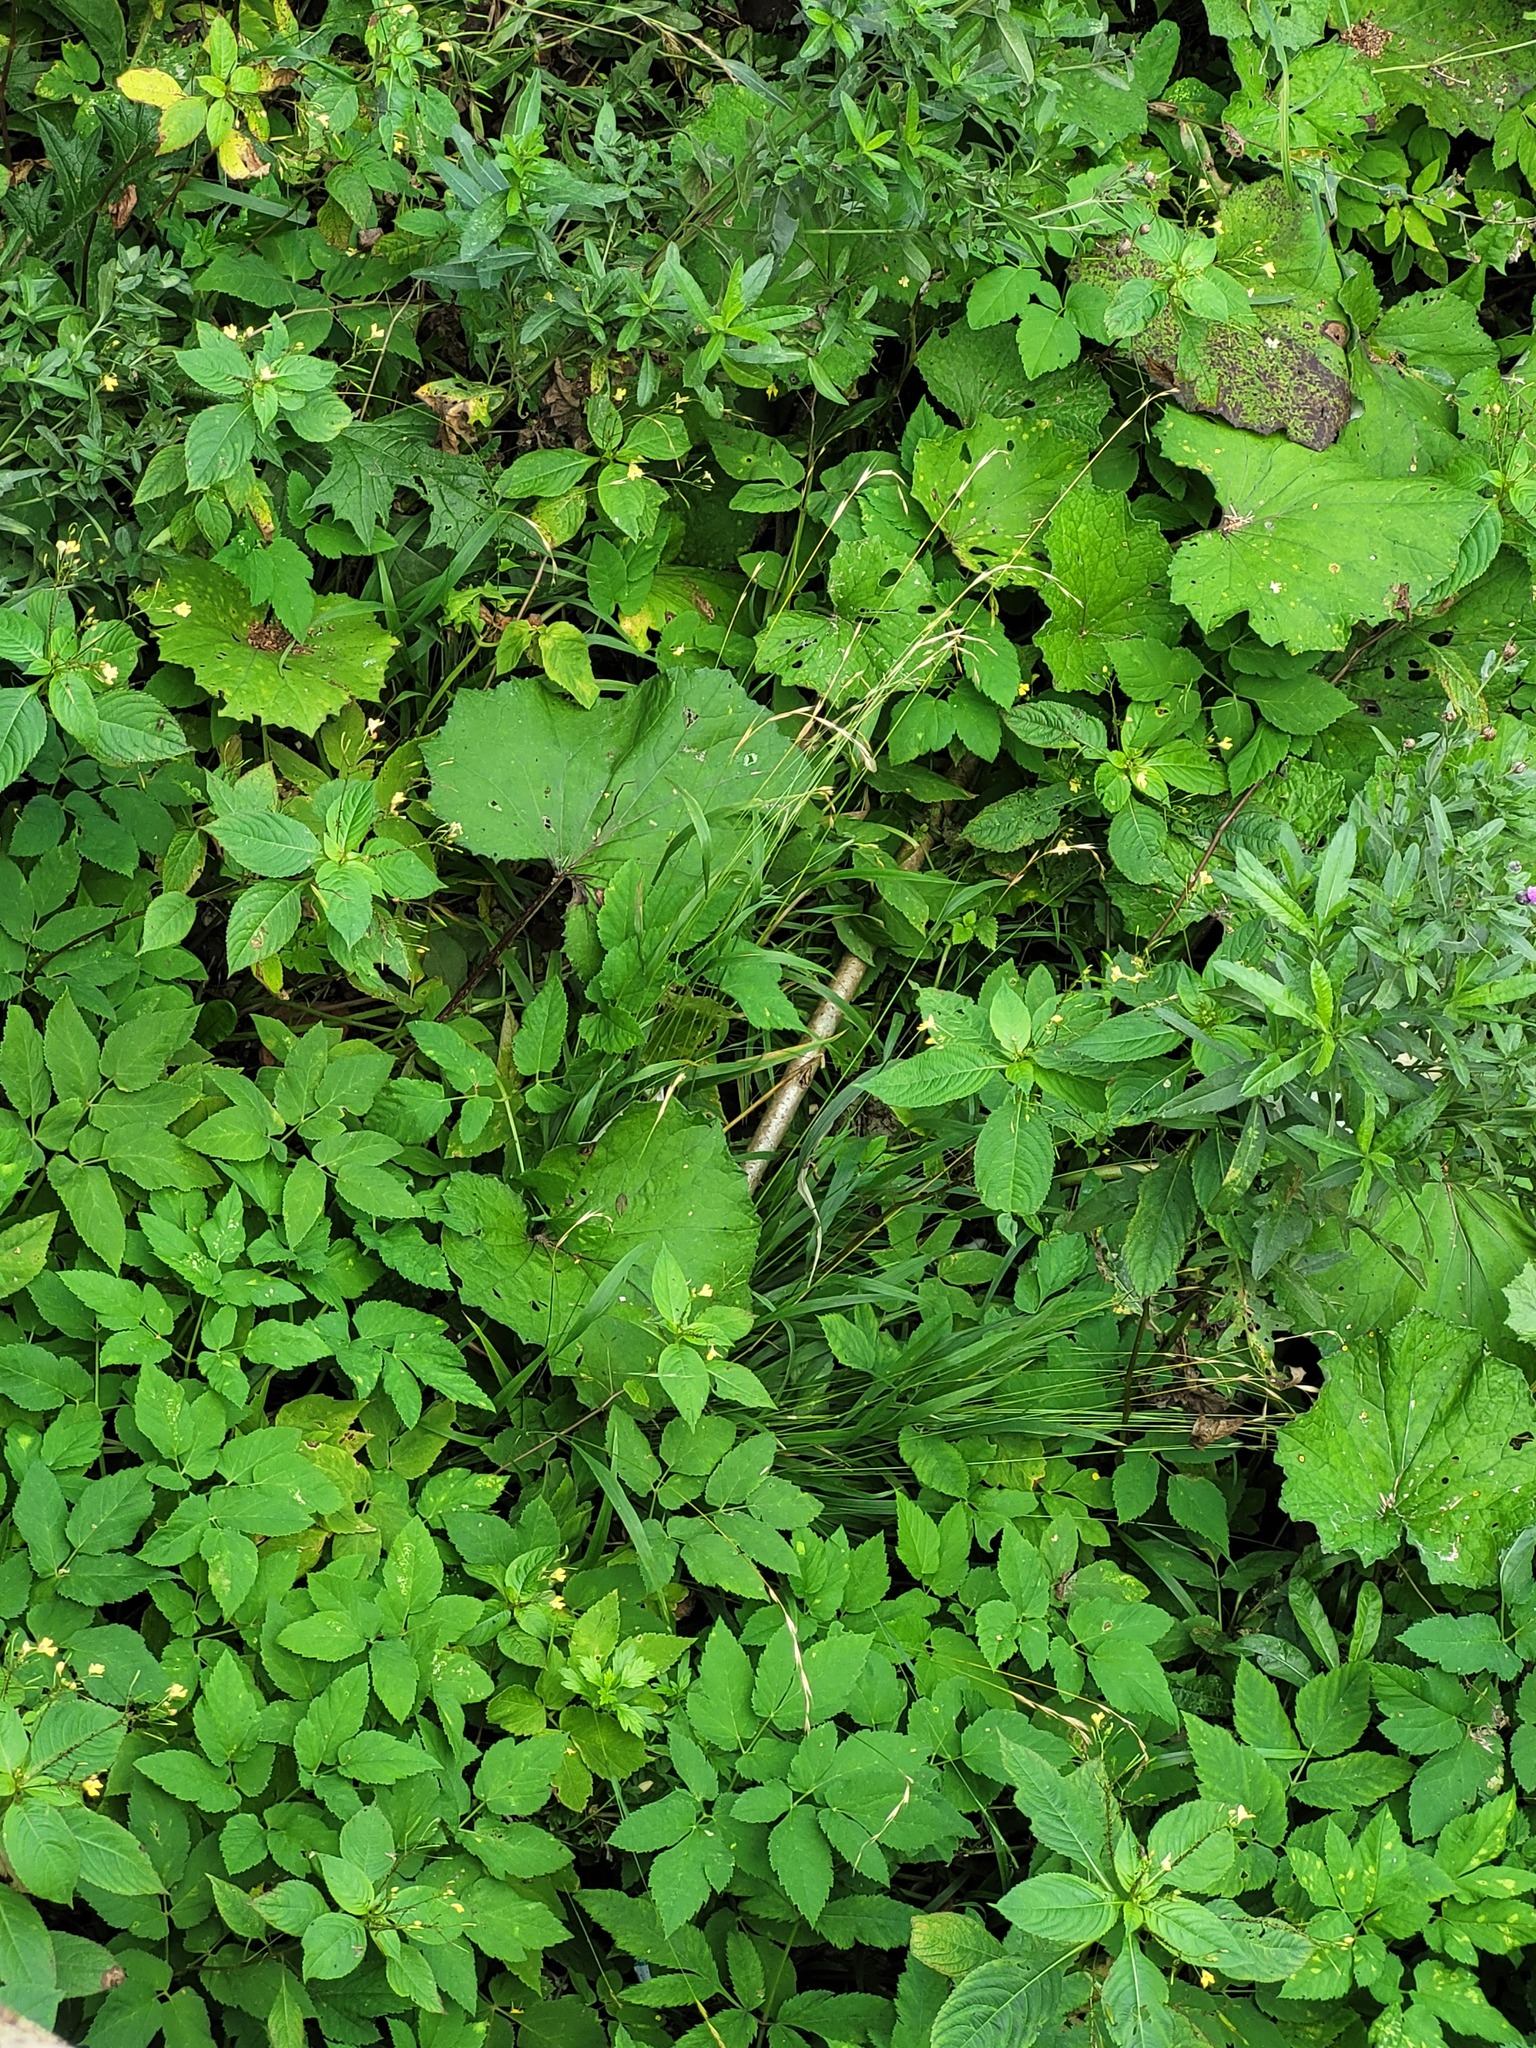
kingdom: Plantae
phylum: Tracheophyta
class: Liliopsida
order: Poales
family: Poaceae
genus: Brachypodium
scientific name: Brachypodium sylvaticum
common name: False-brome
